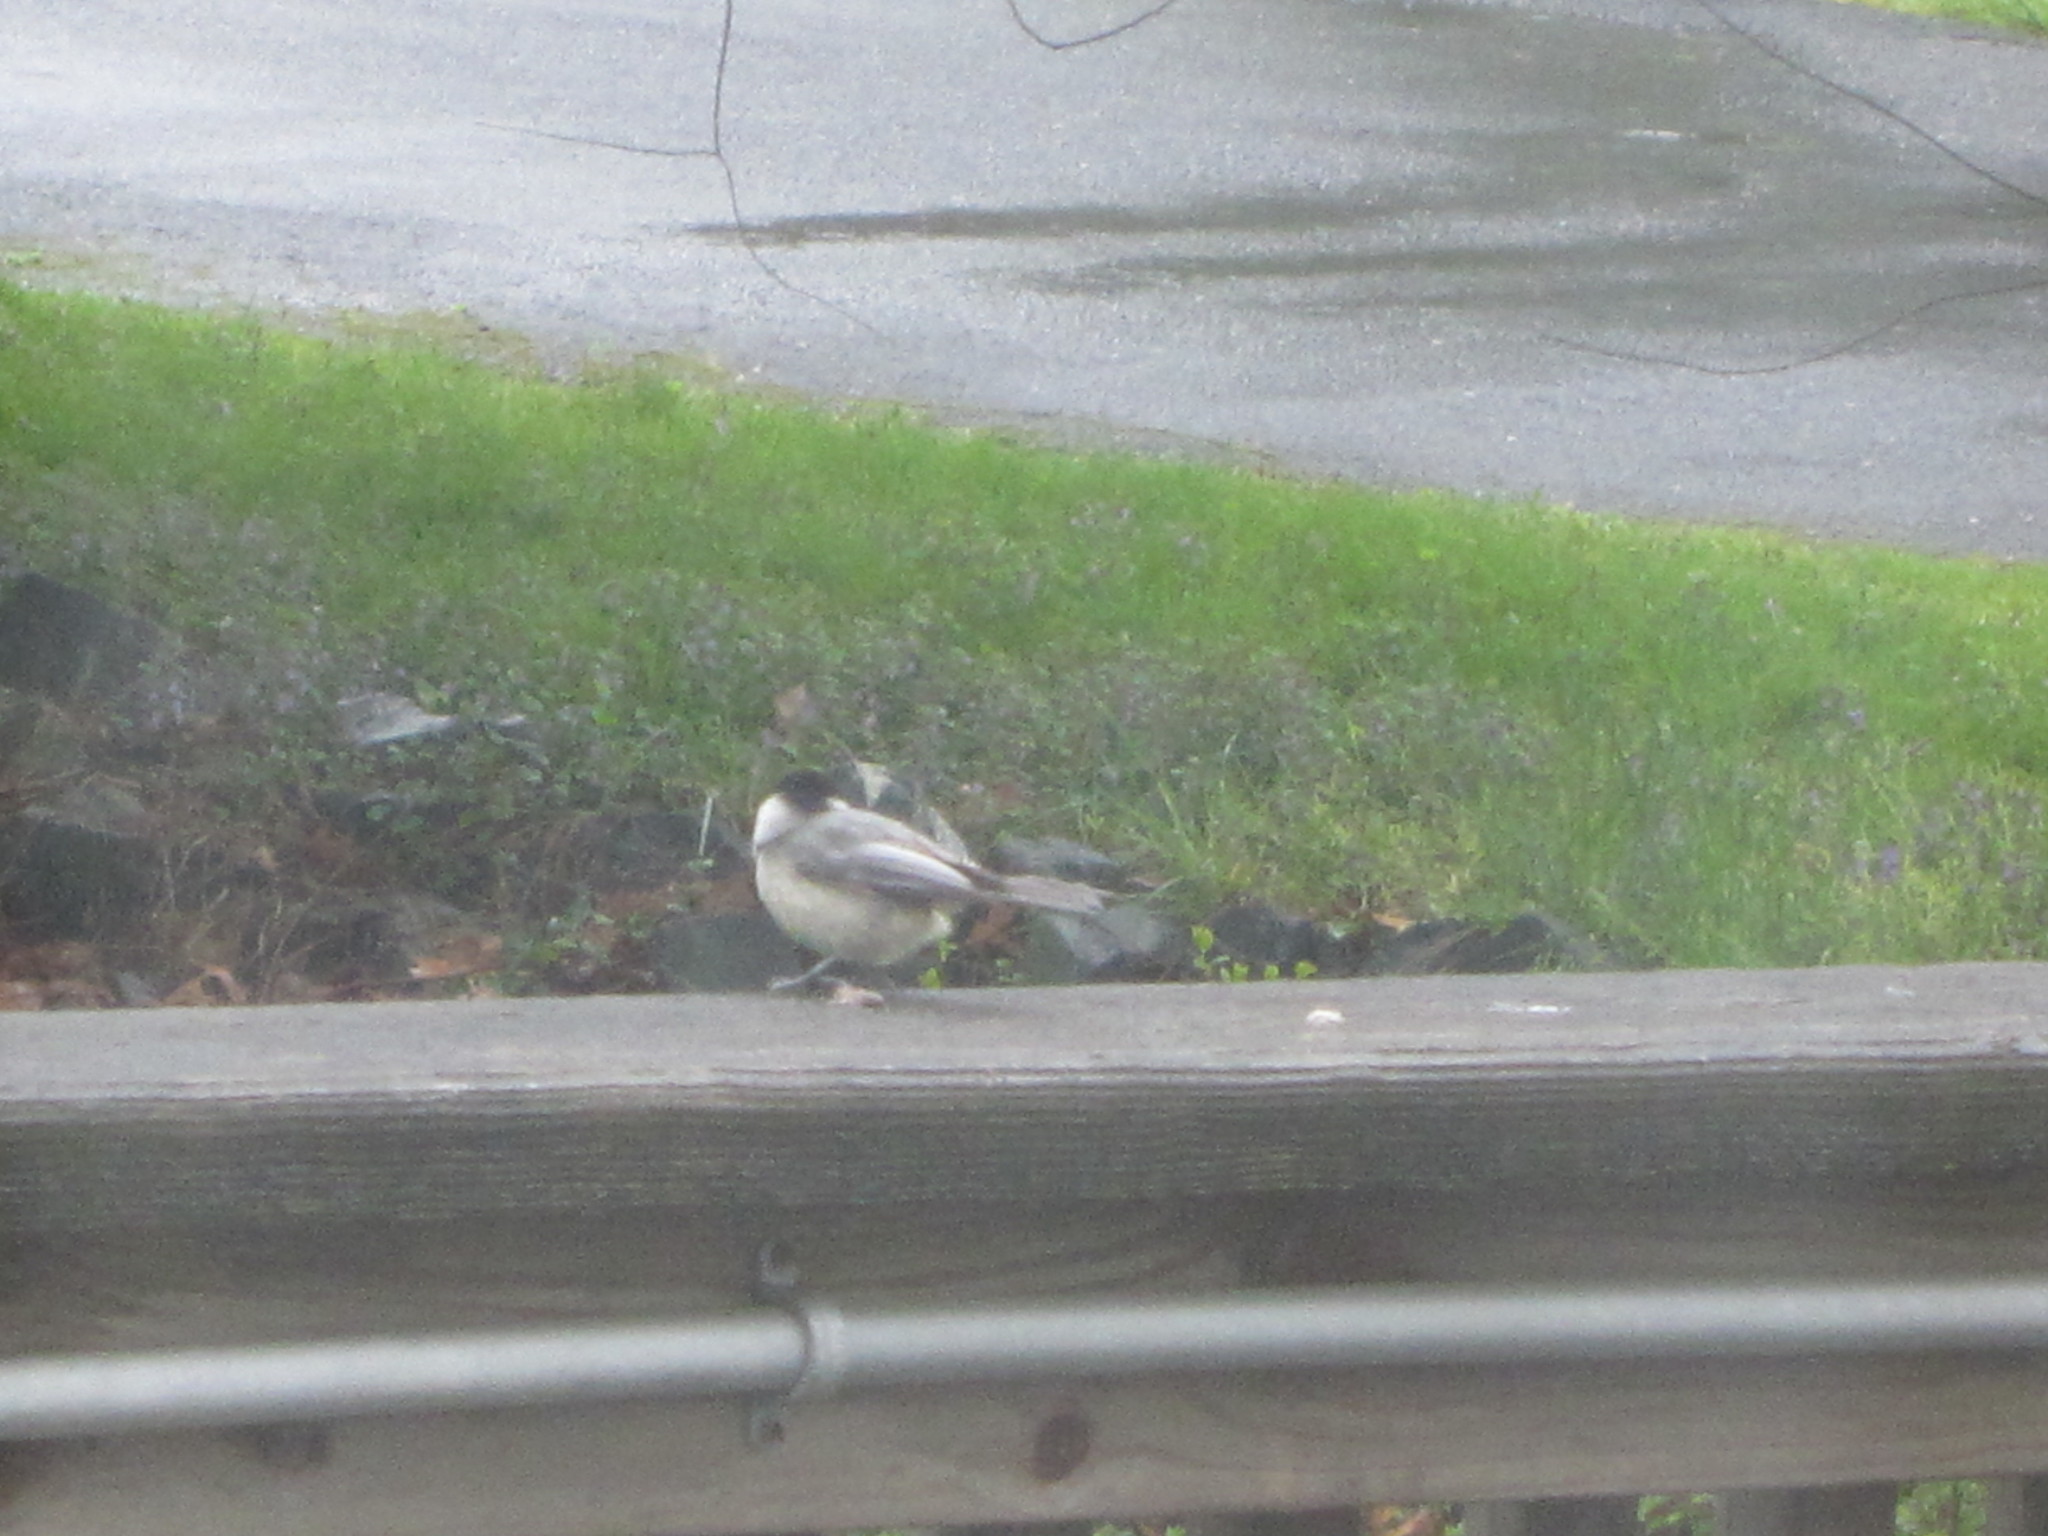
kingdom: Animalia
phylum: Chordata
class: Aves
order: Passeriformes
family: Paridae
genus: Poecile
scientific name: Poecile carolinensis
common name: Carolina chickadee
